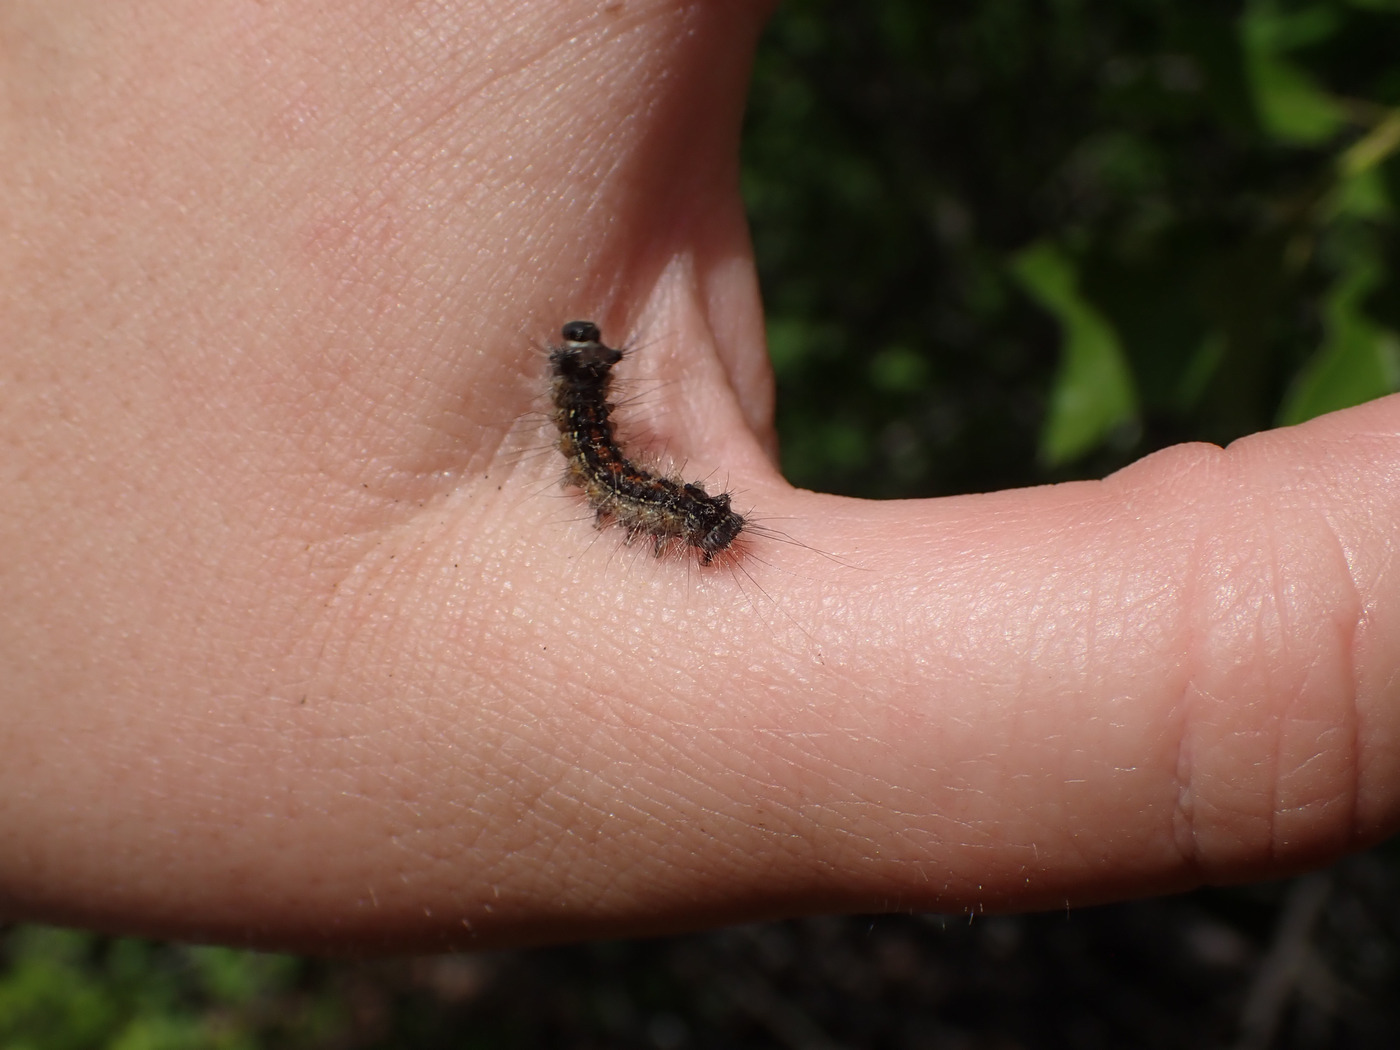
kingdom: Animalia
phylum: Arthropoda
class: Insecta
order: Lepidoptera
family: Erebidae
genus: Lymantria
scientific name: Lymantria dispar
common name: Gypsy moth
